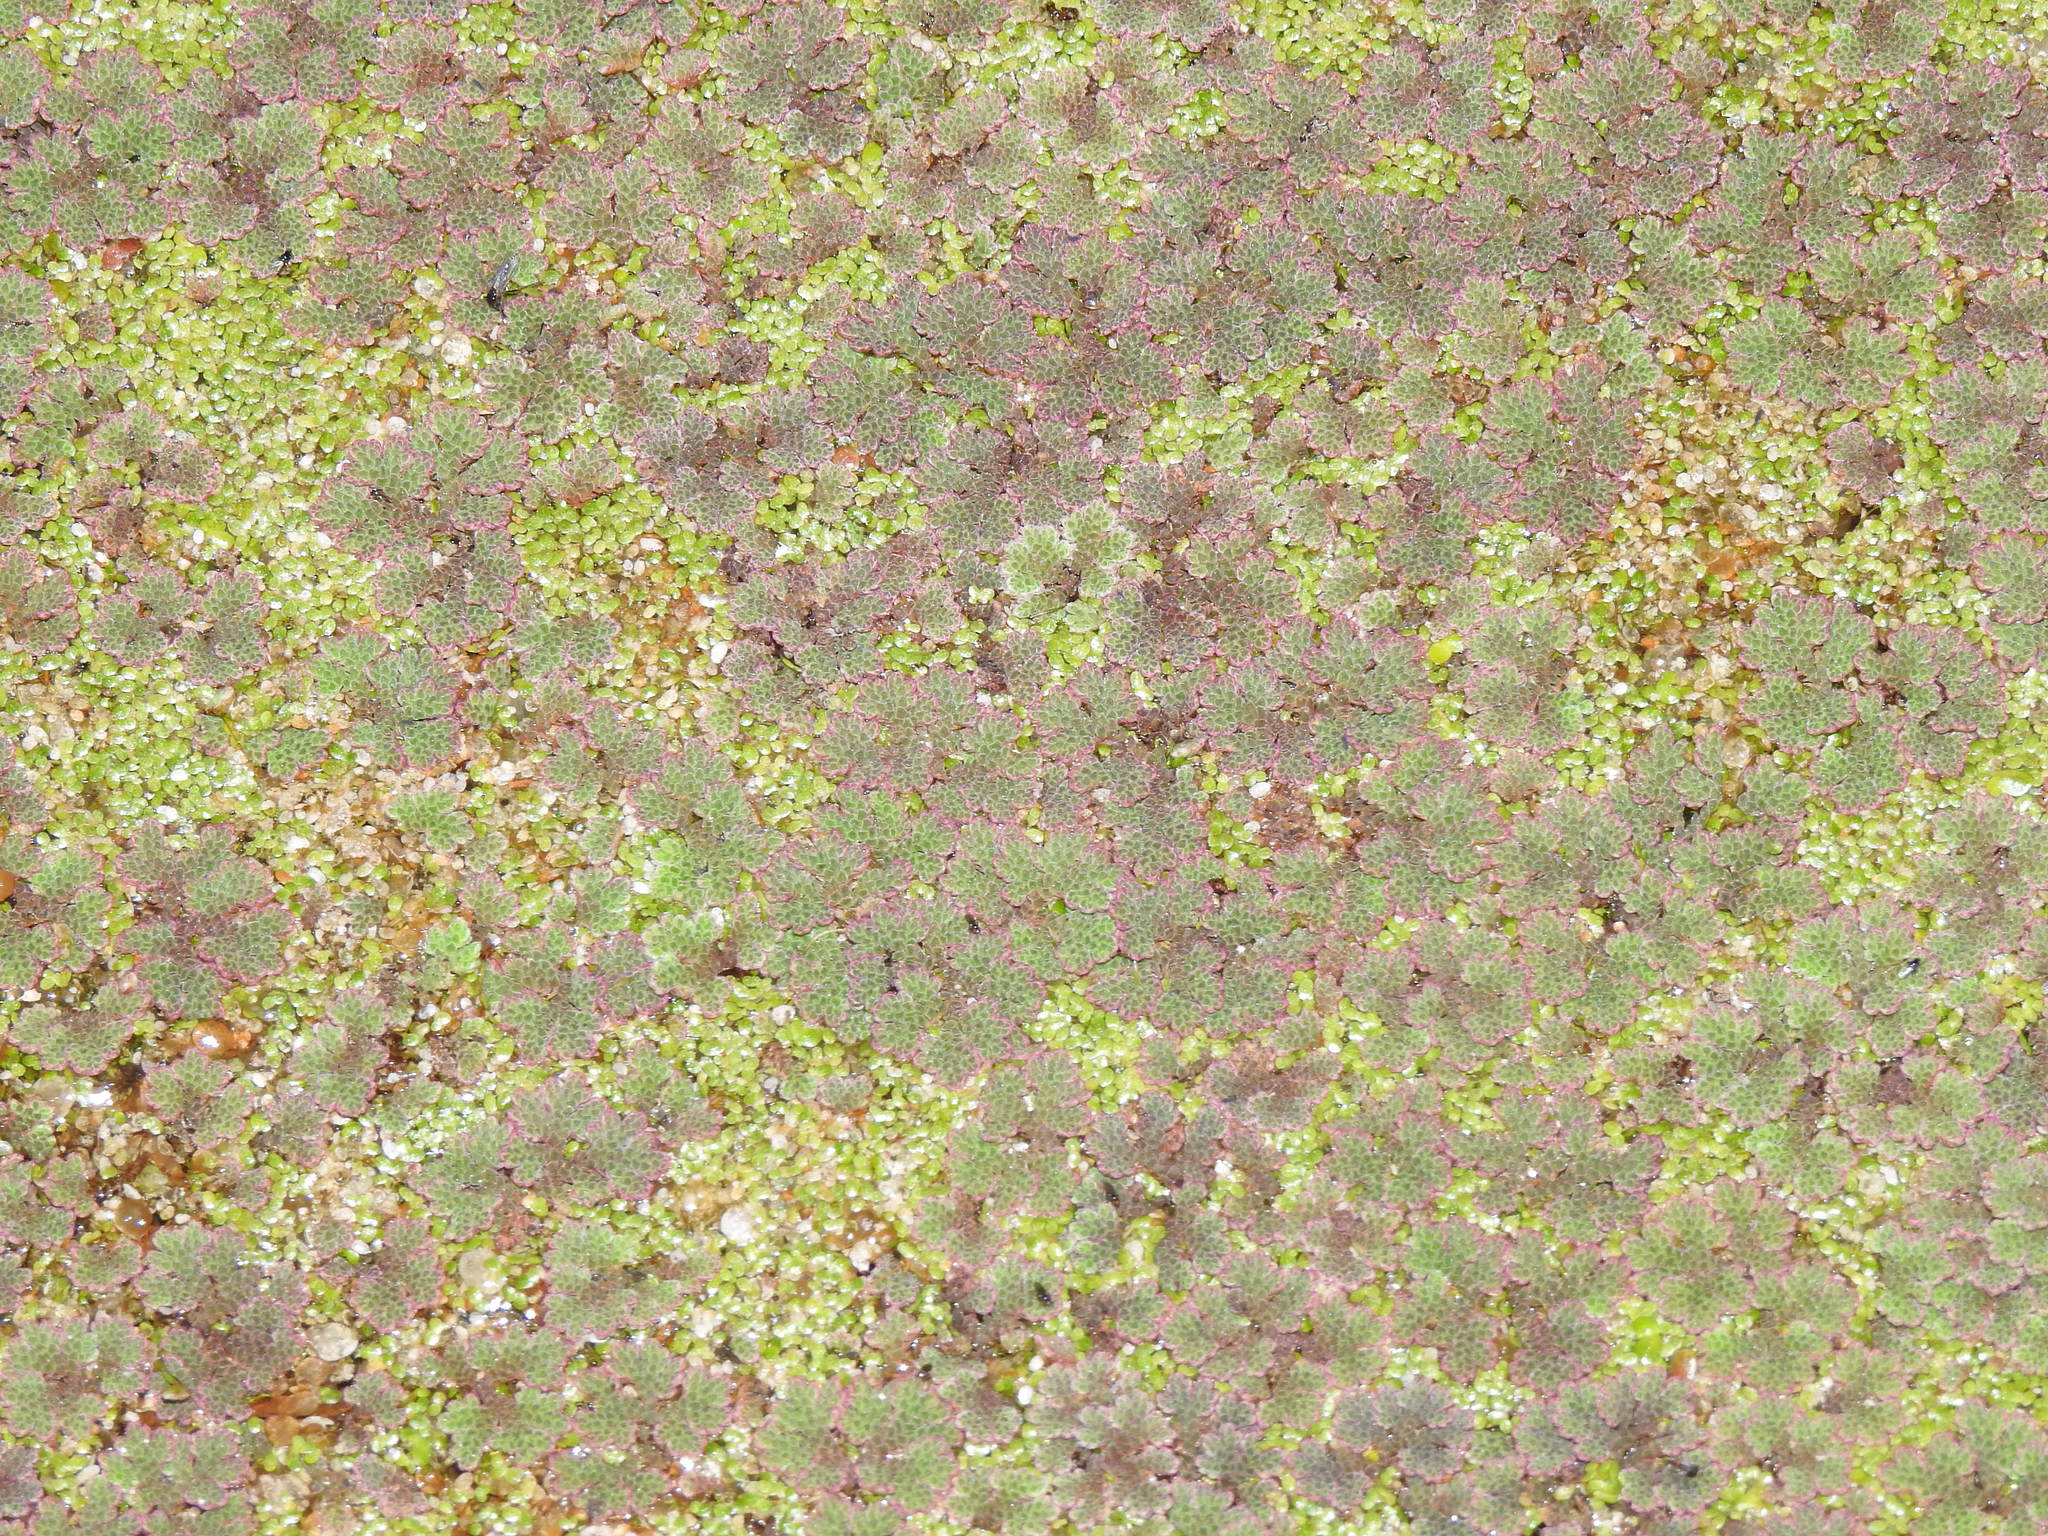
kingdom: Bacteria
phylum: Cyanobacteria
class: Cyanobacteriia
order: Cyanobacteriales
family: Nostocaceae
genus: Trichormus
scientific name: Trichormus azollae
